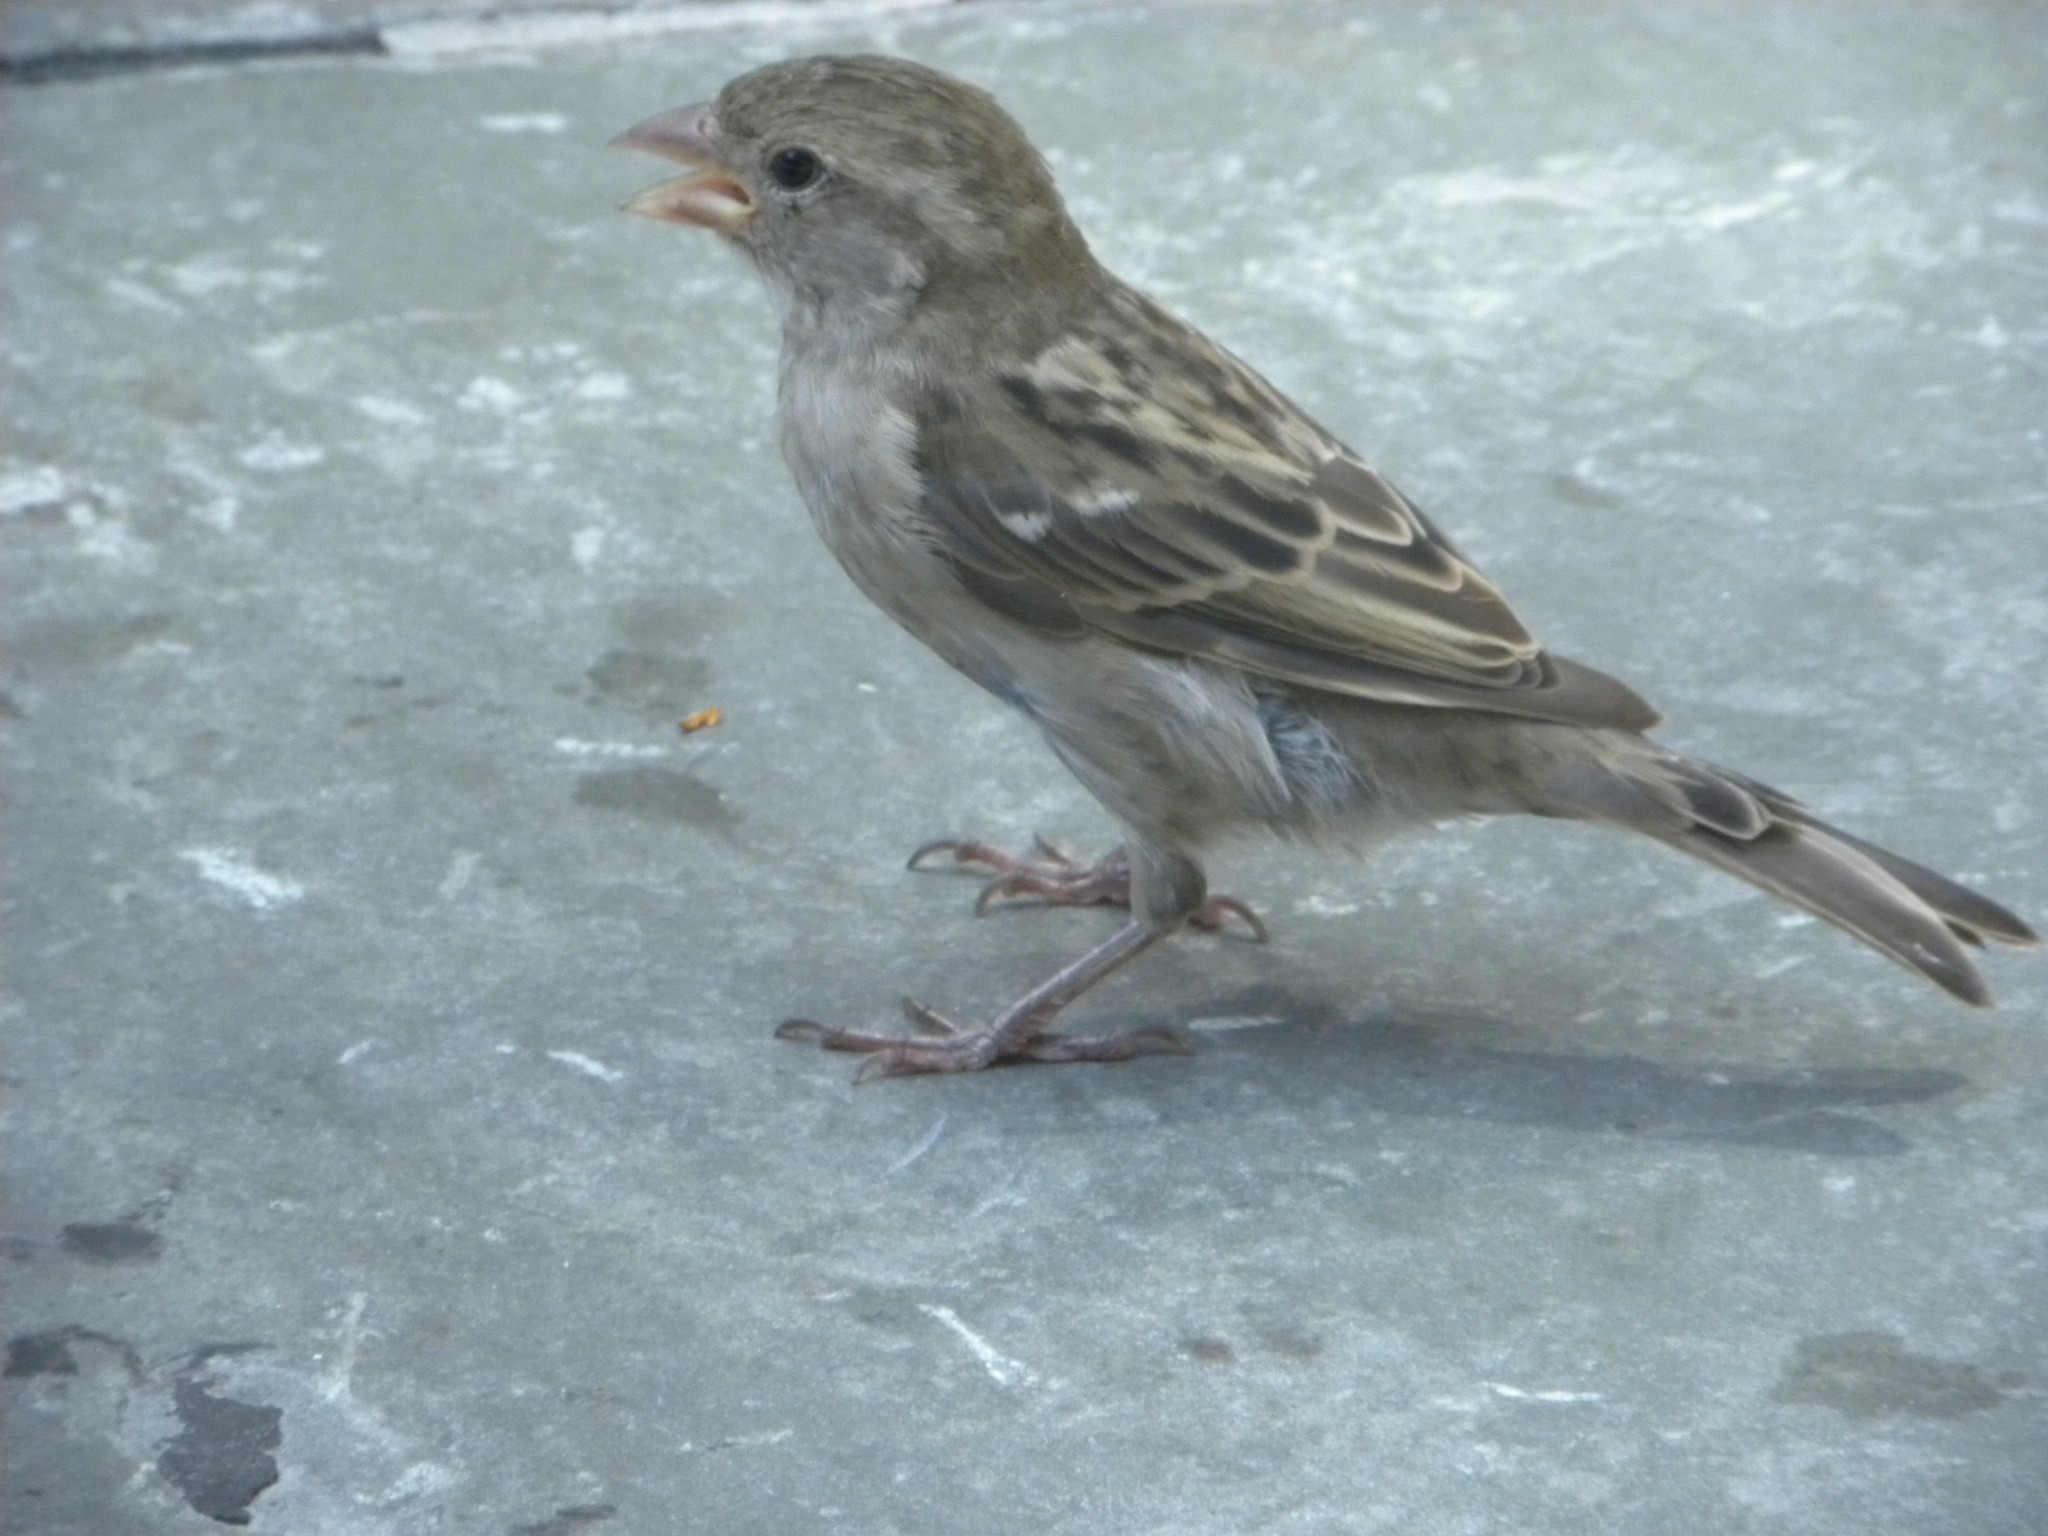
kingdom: Animalia
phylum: Chordata
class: Aves
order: Passeriformes
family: Passeridae
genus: Passer
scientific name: Passer domesticus
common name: House sparrow
